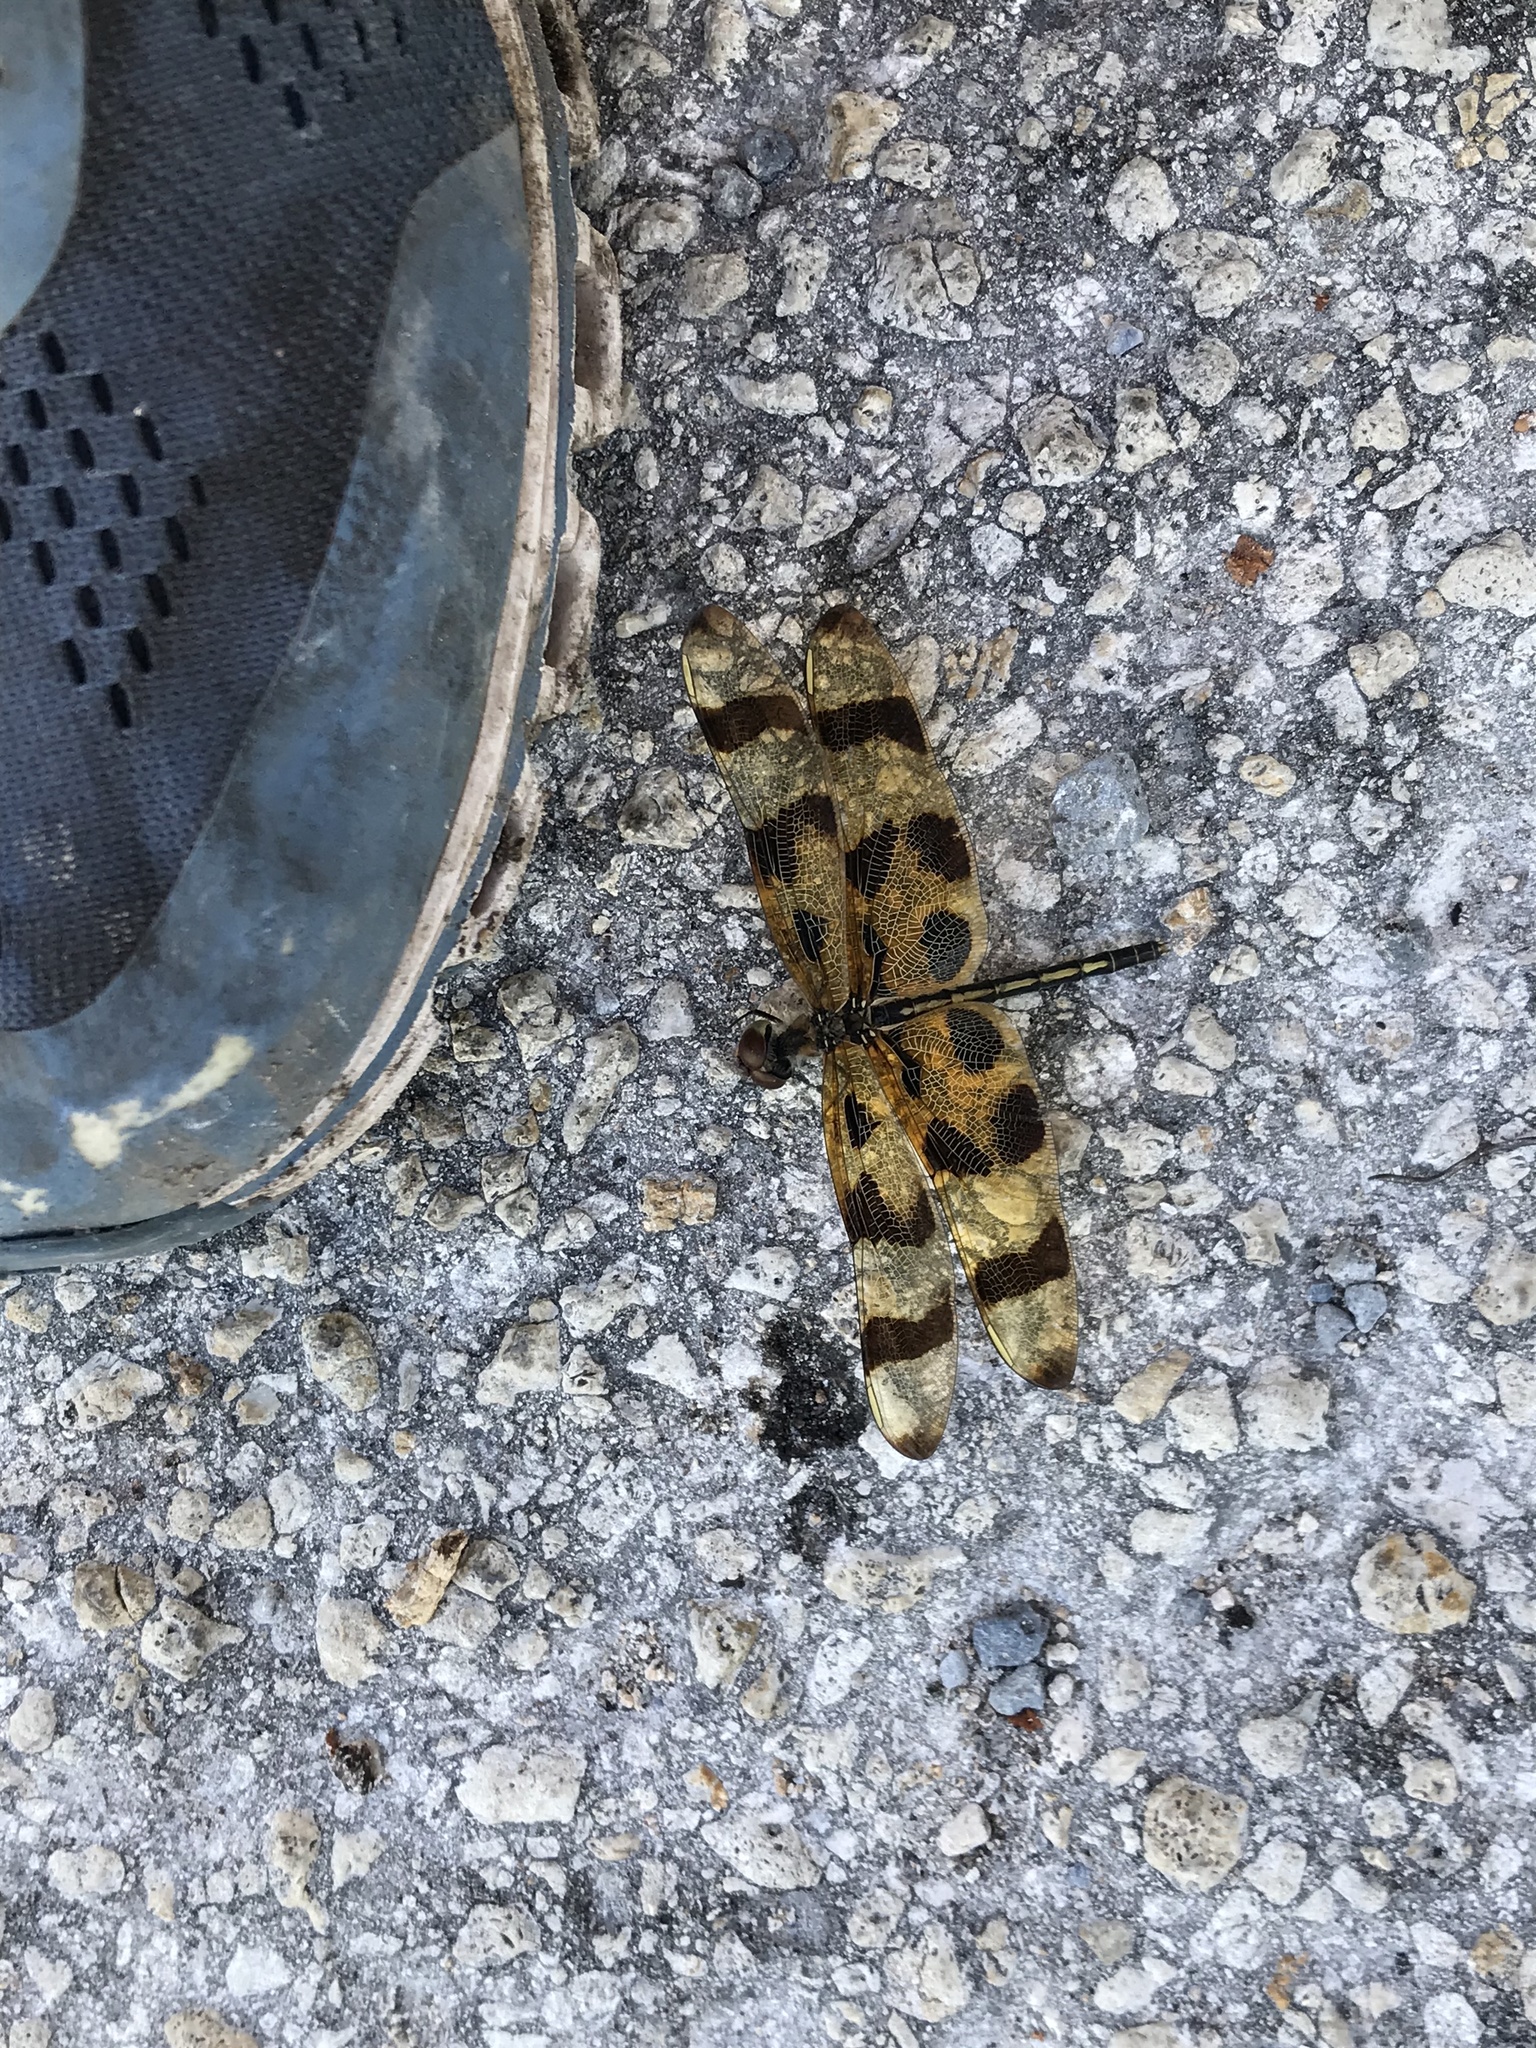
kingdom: Animalia
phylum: Arthropoda
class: Insecta
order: Odonata
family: Libellulidae
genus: Celithemis
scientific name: Celithemis eponina
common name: Halloween pennant
